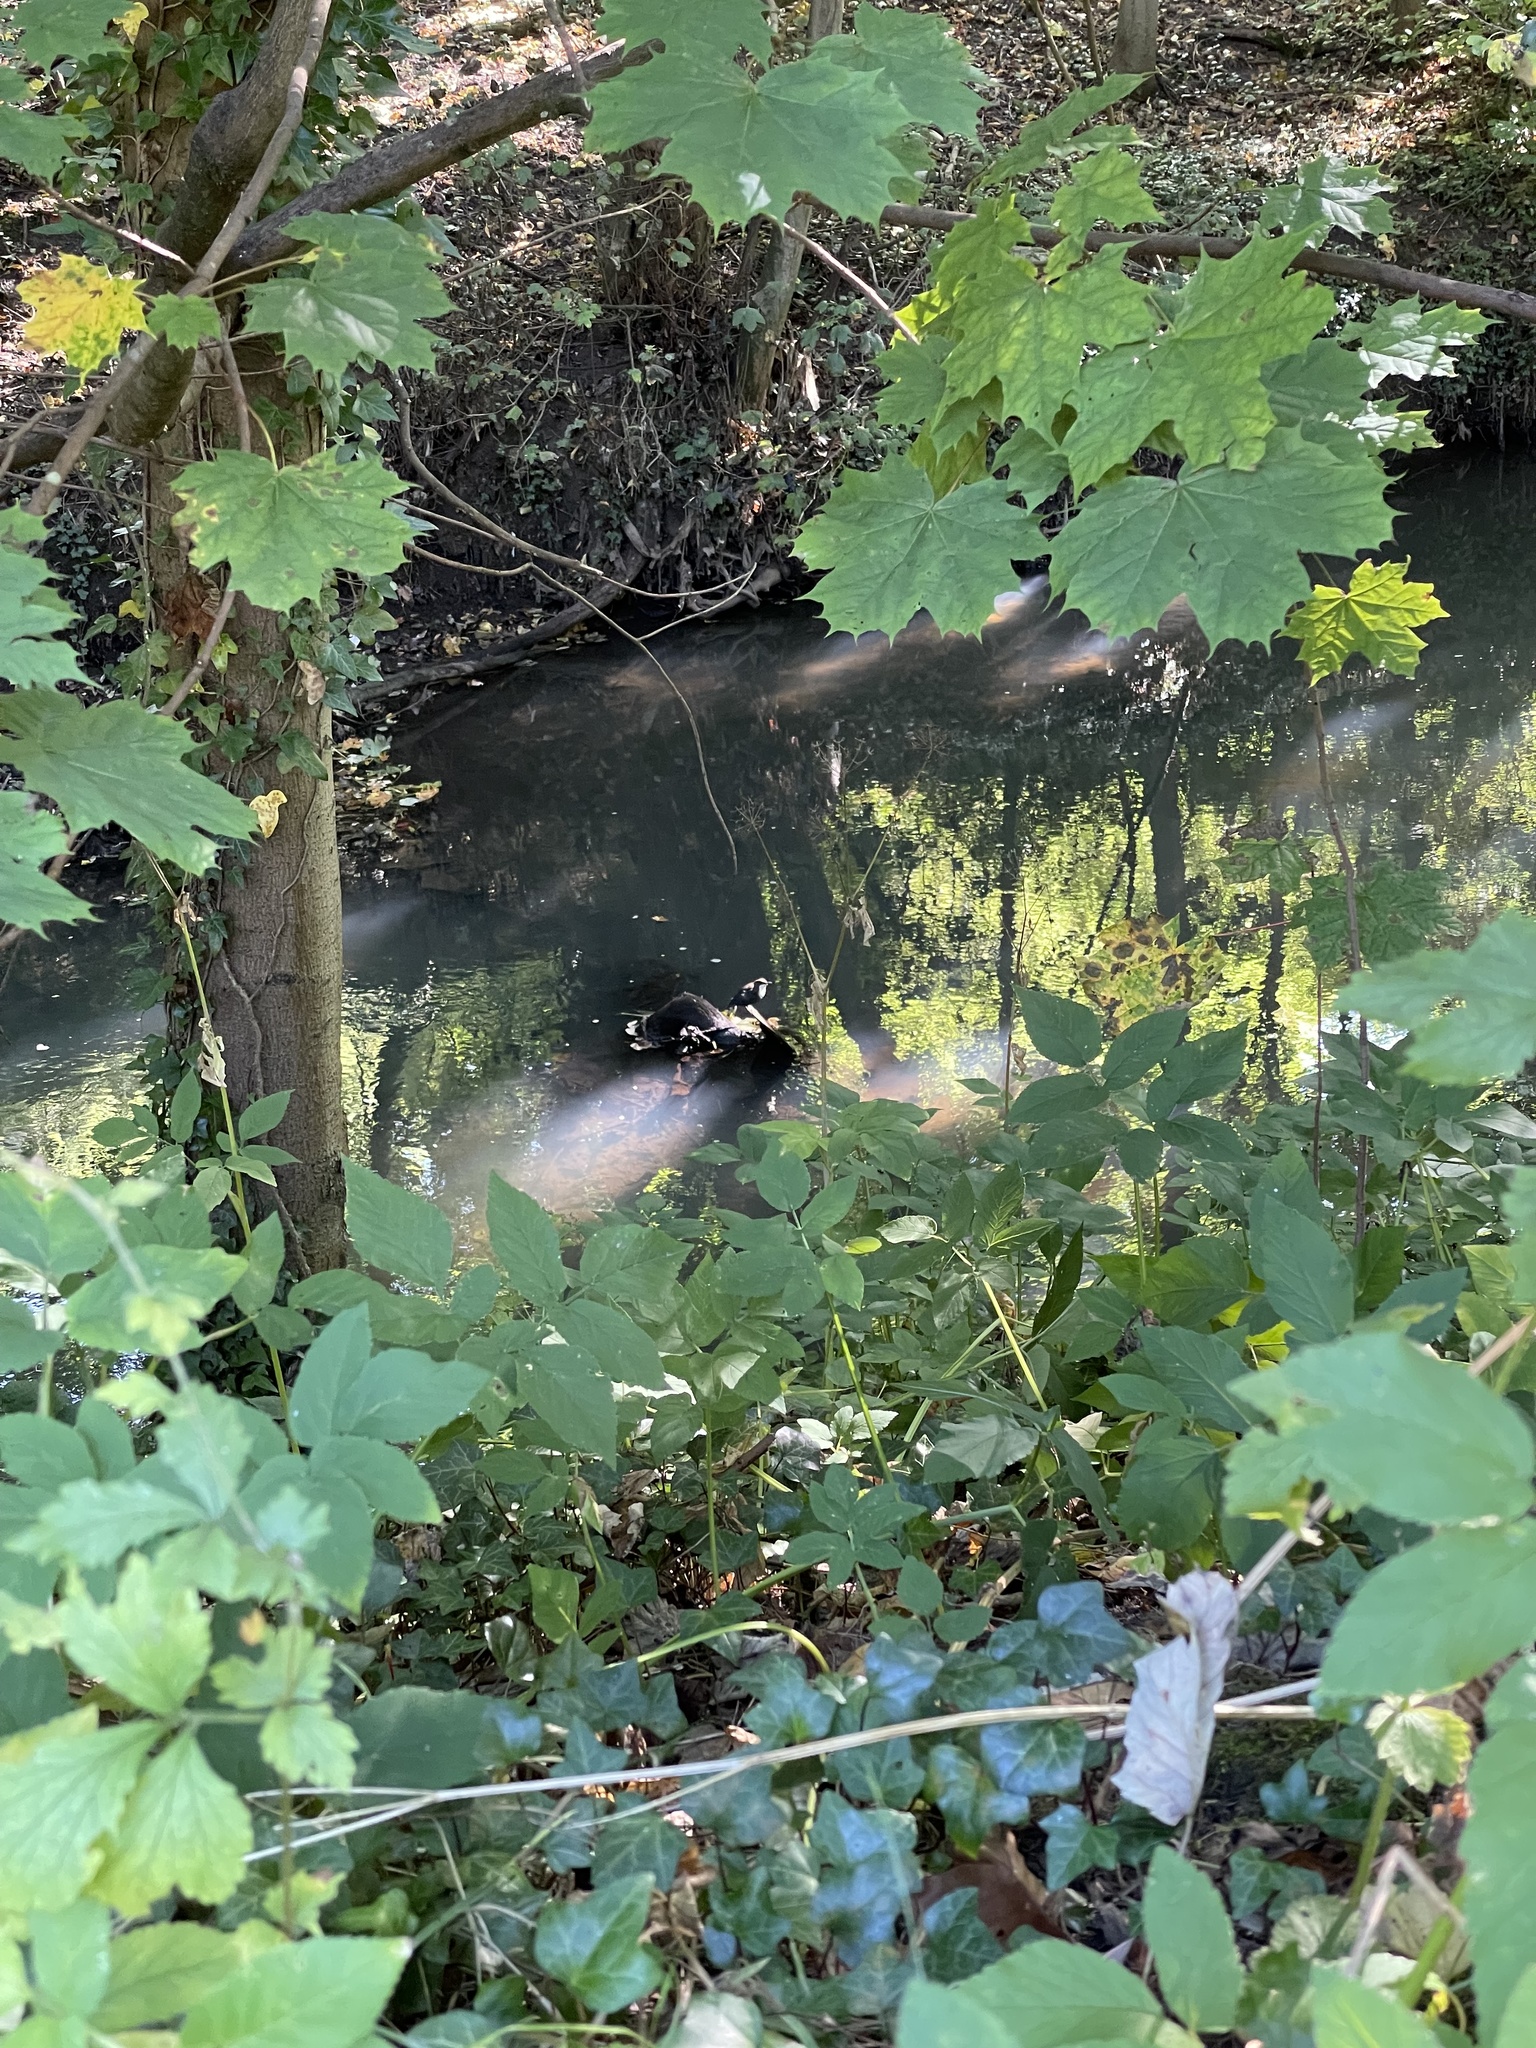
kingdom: Animalia
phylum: Chordata
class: Aves
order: Passeriformes
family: Cinclidae
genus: Cinclus
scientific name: Cinclus cinclus
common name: White-throated dipper
